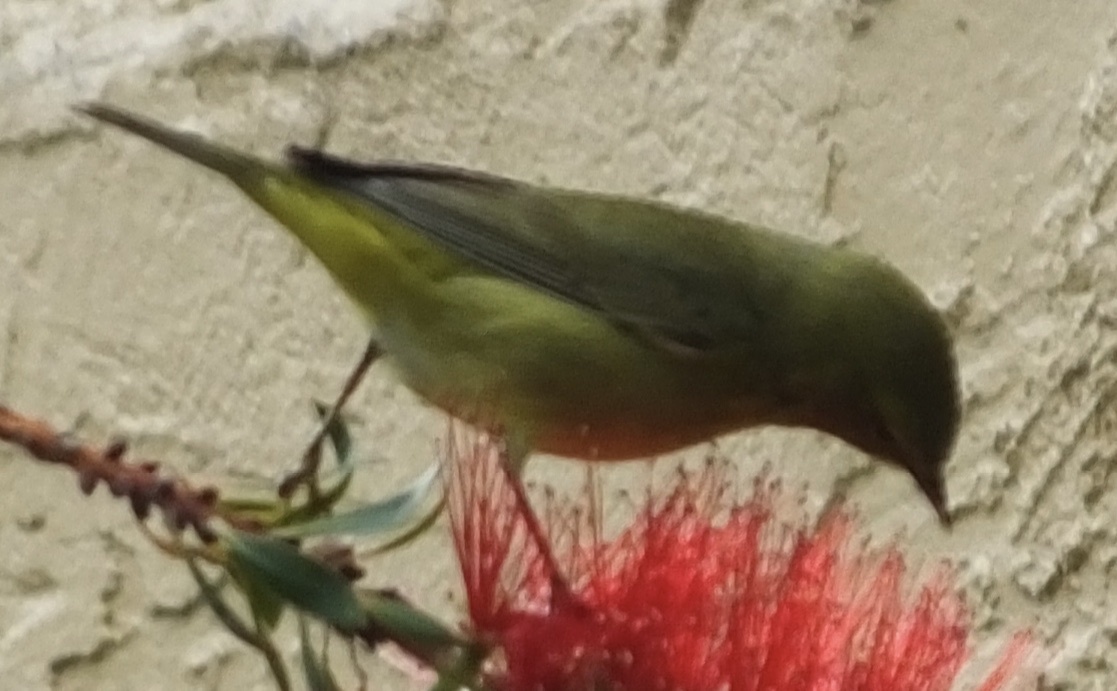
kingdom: Animalia
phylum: Chordata
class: Aves
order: Passeriformes
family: Parulidae
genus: Leiothlypis
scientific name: Leiothlypis celata
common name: Orange-crowned warbler
